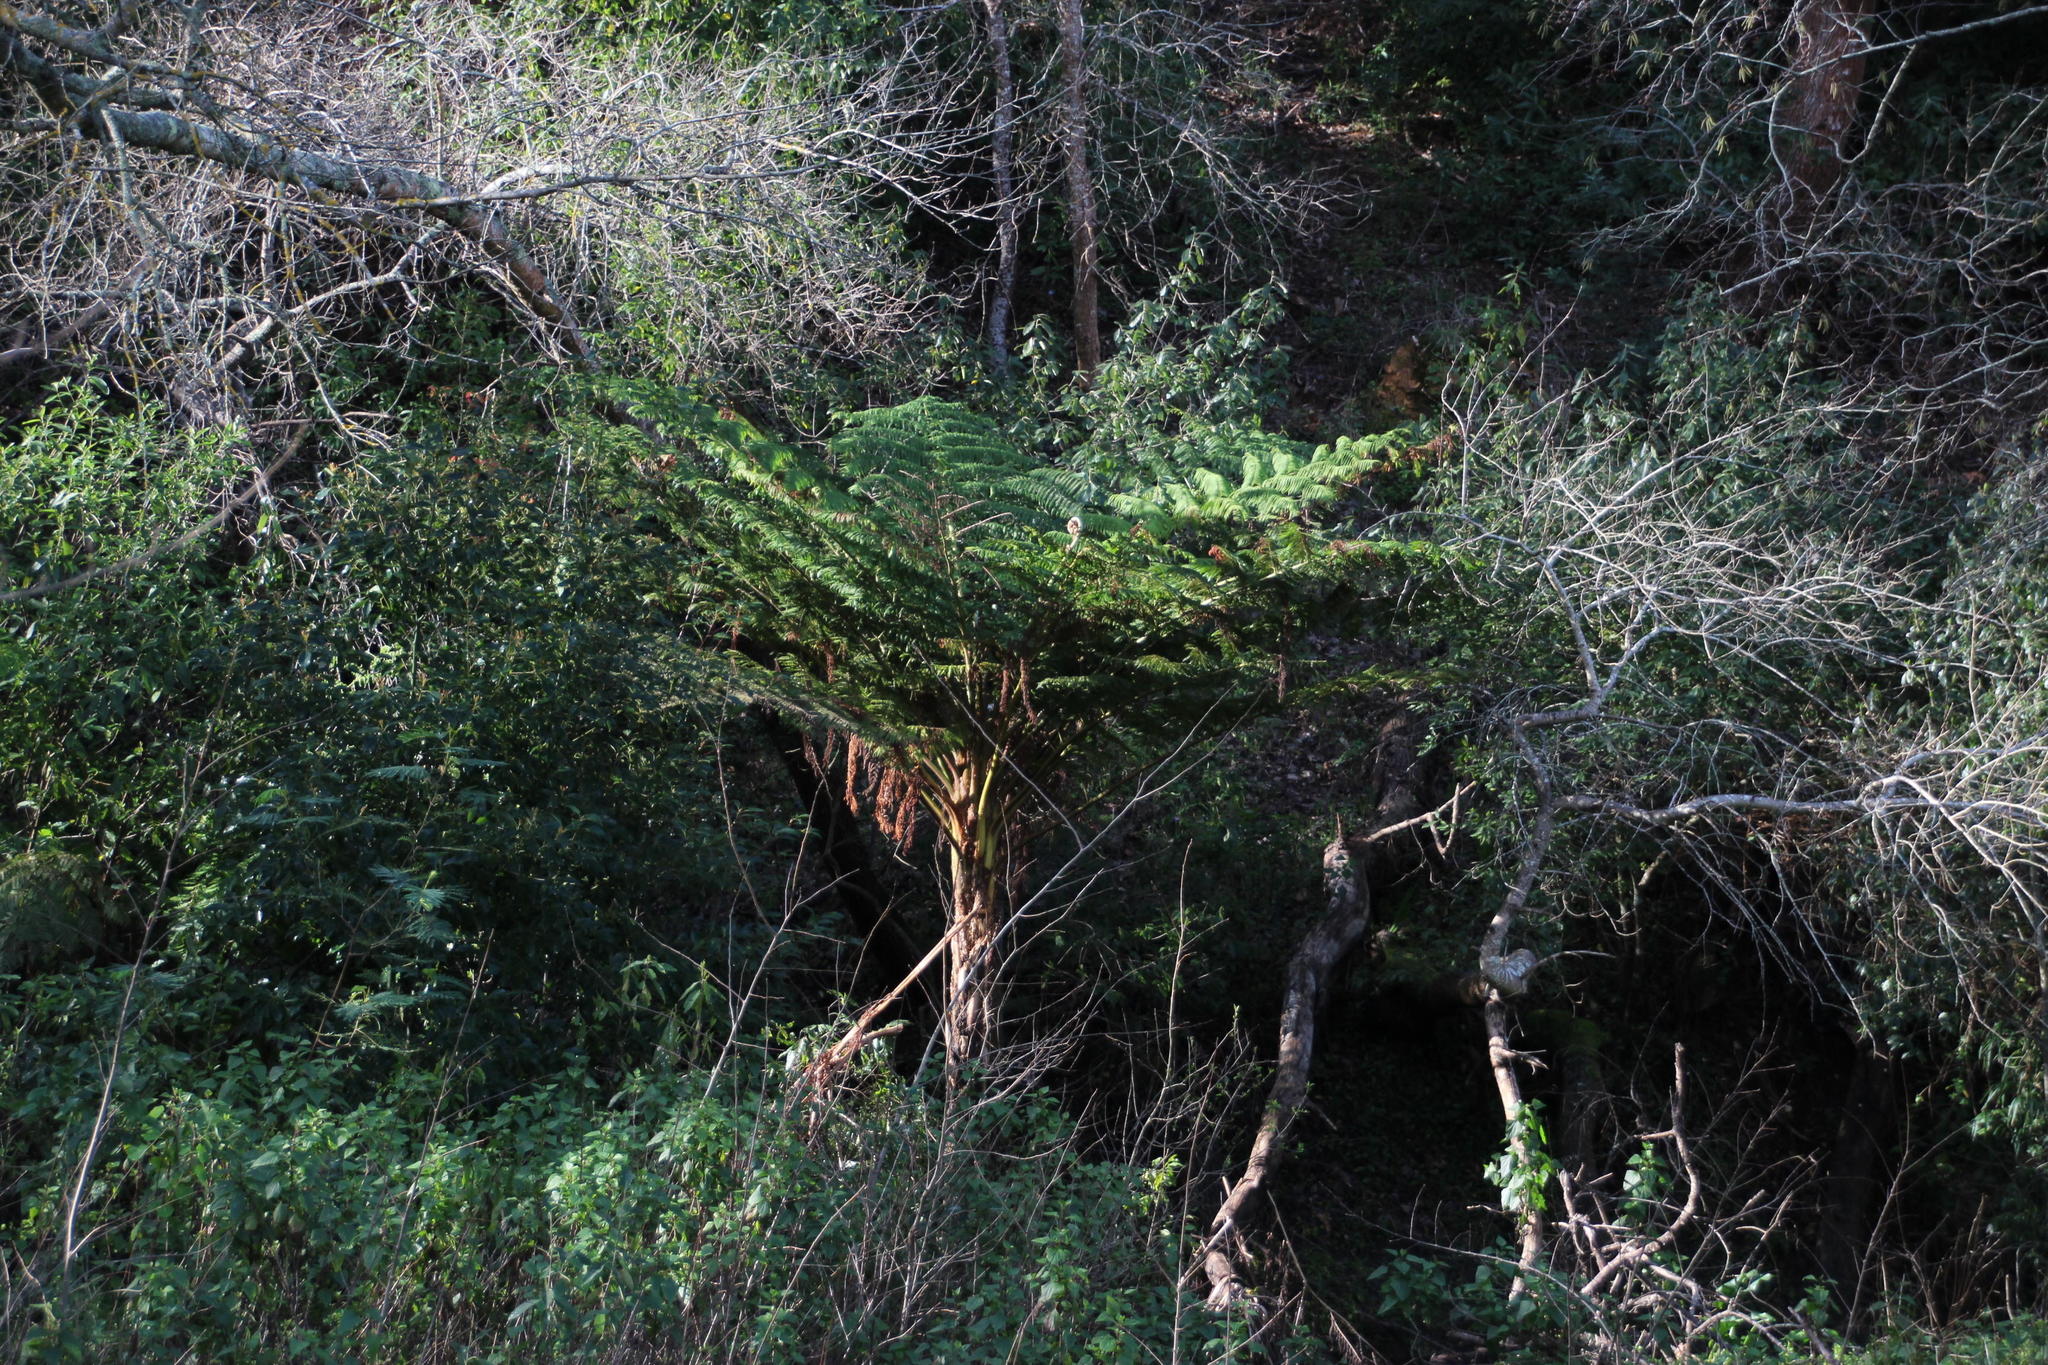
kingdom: Plantae
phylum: Tracheophyta
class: Polypodiopsida
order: Cyatheales
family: Cyatheaceae
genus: Sphaeropteris
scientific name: Sphaeropteris cooperi
